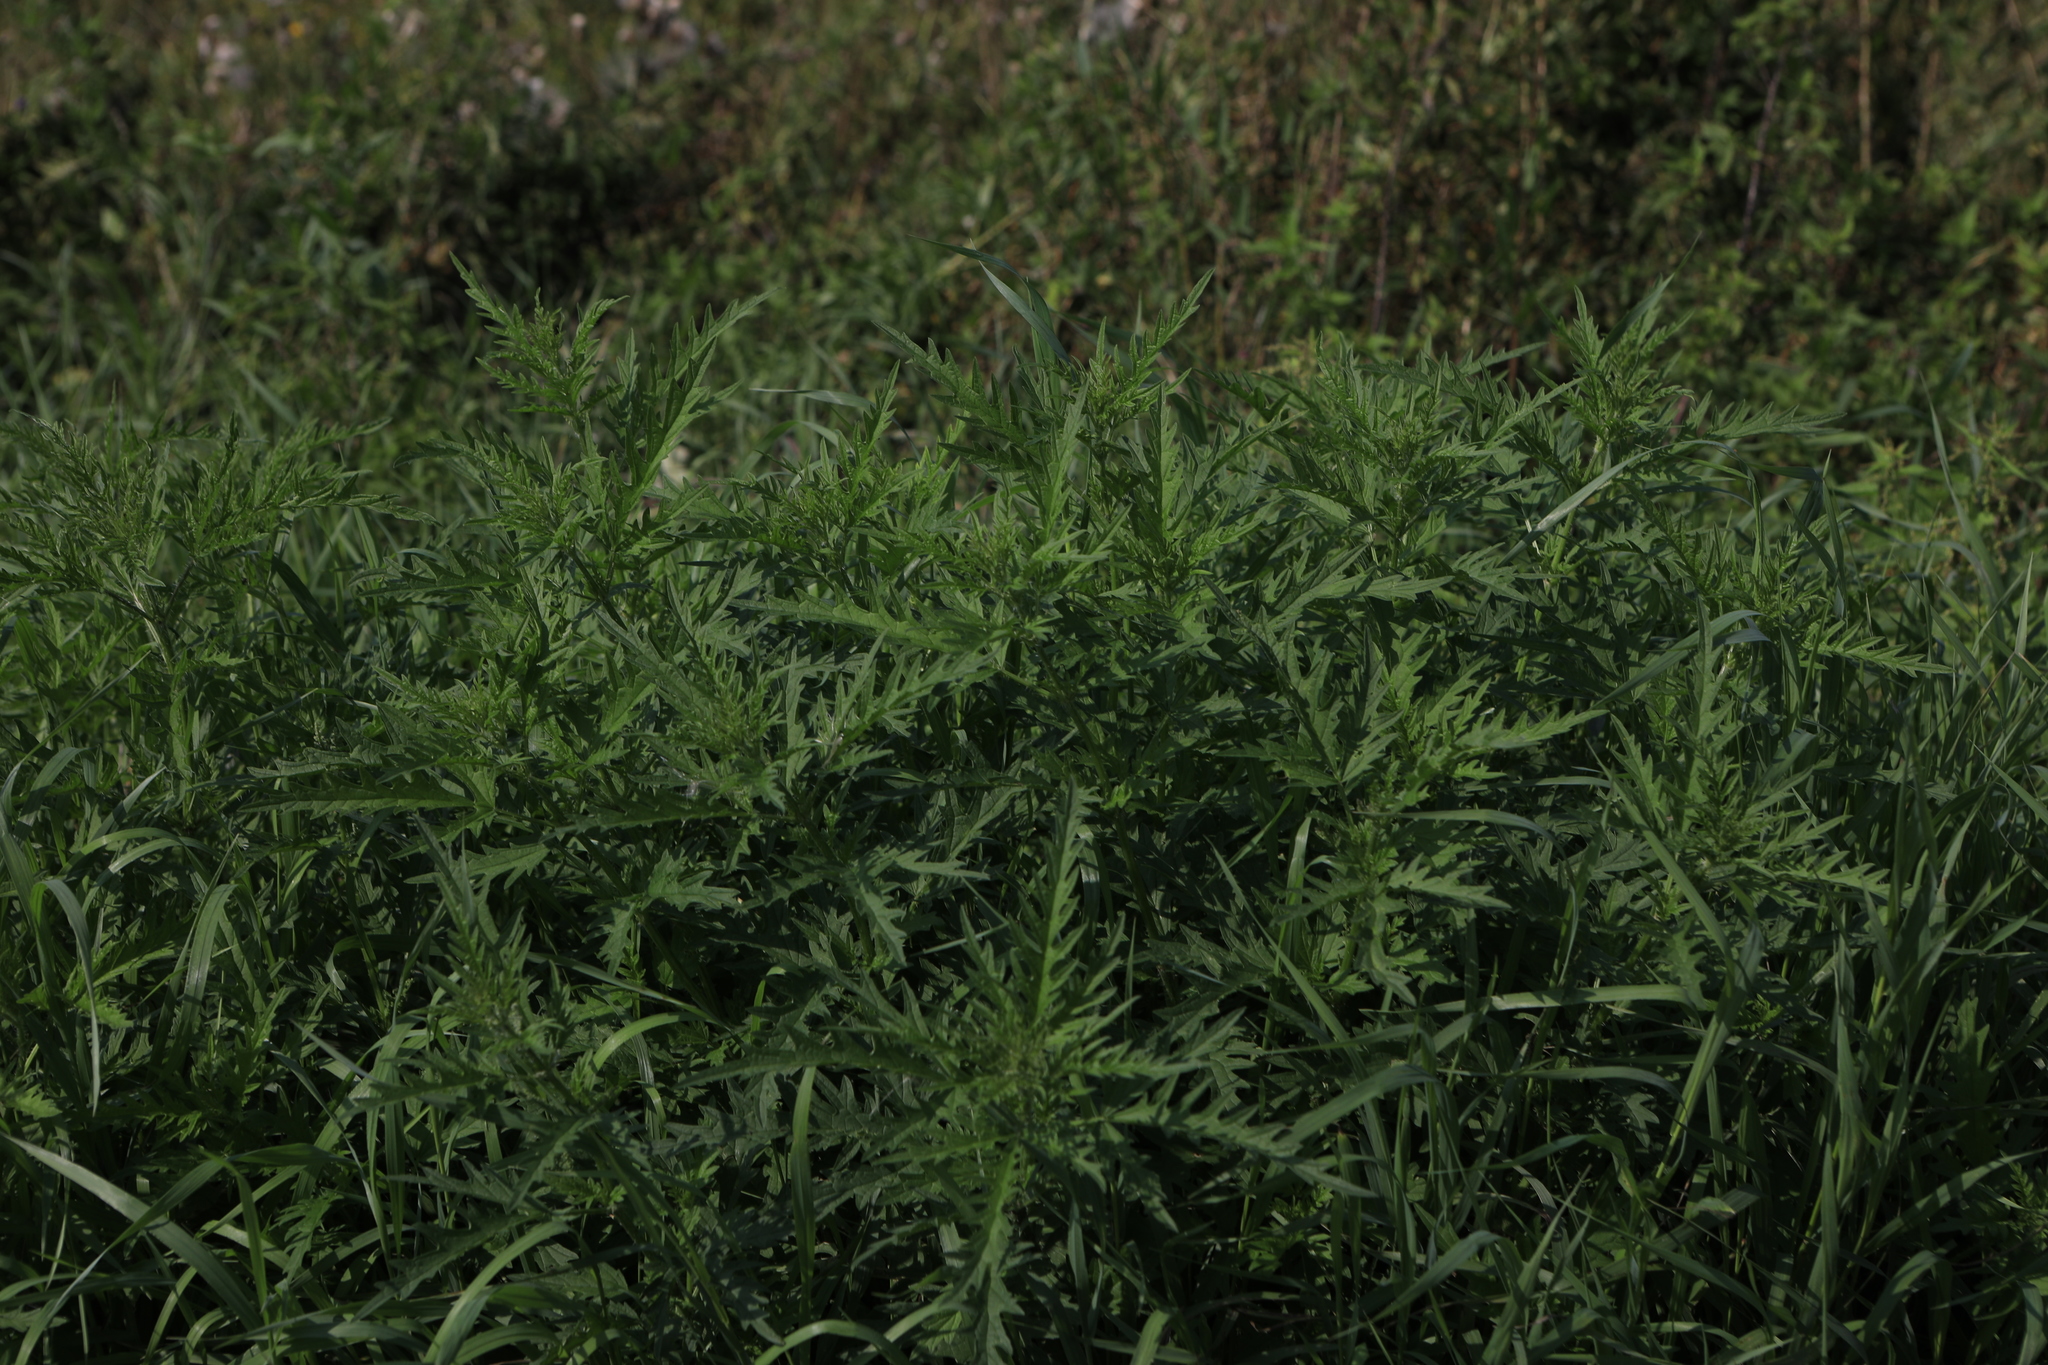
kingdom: Plantae
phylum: Tracheophyta
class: Magnoliopsida
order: Rosales
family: Urticaceae
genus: Urtica
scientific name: Urtica cannabina
